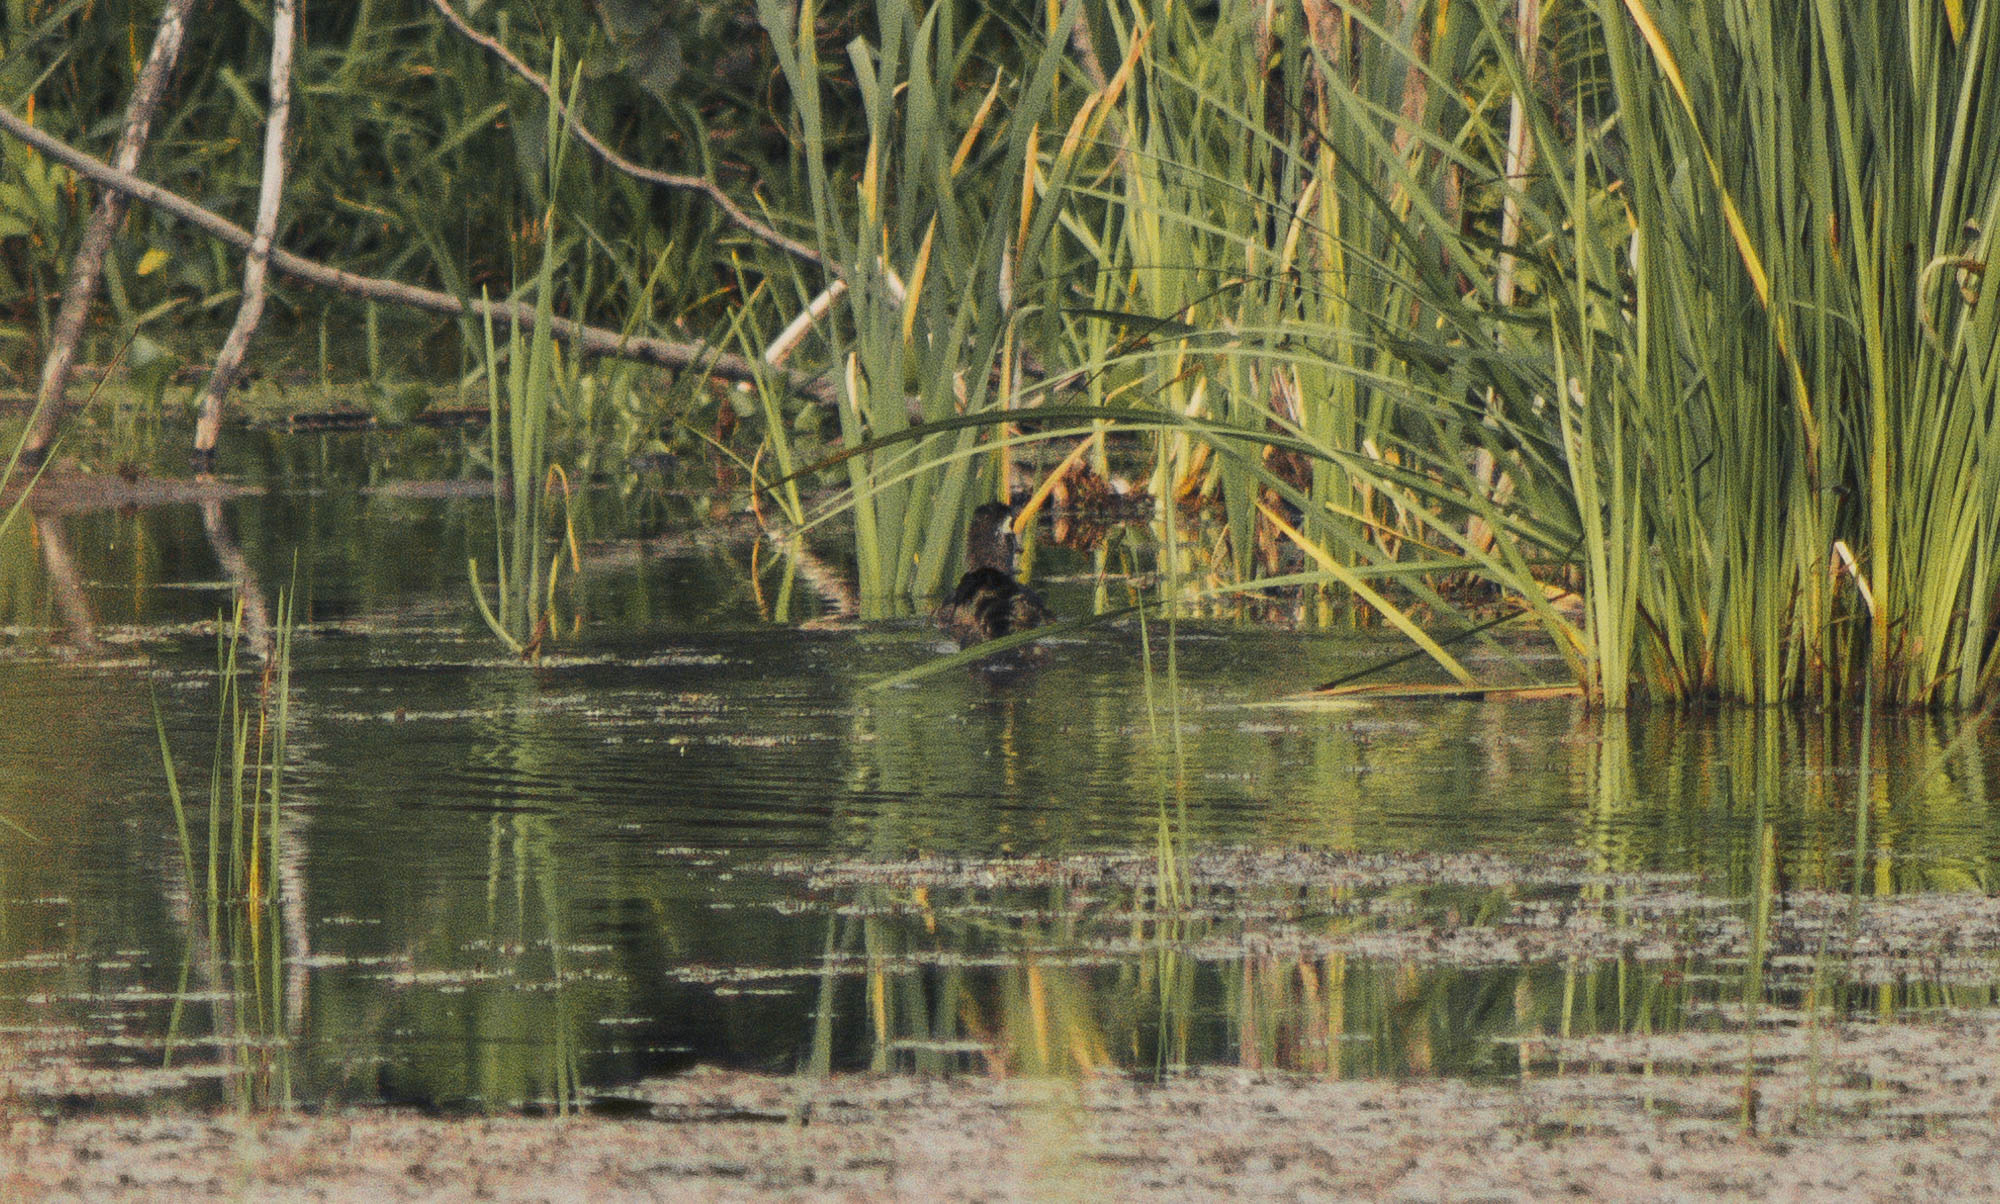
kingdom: Animalia
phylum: Chordata
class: Aves
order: Anseriformes
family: Anatidae
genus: Aix
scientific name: Aix sponsa
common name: Wood duck
